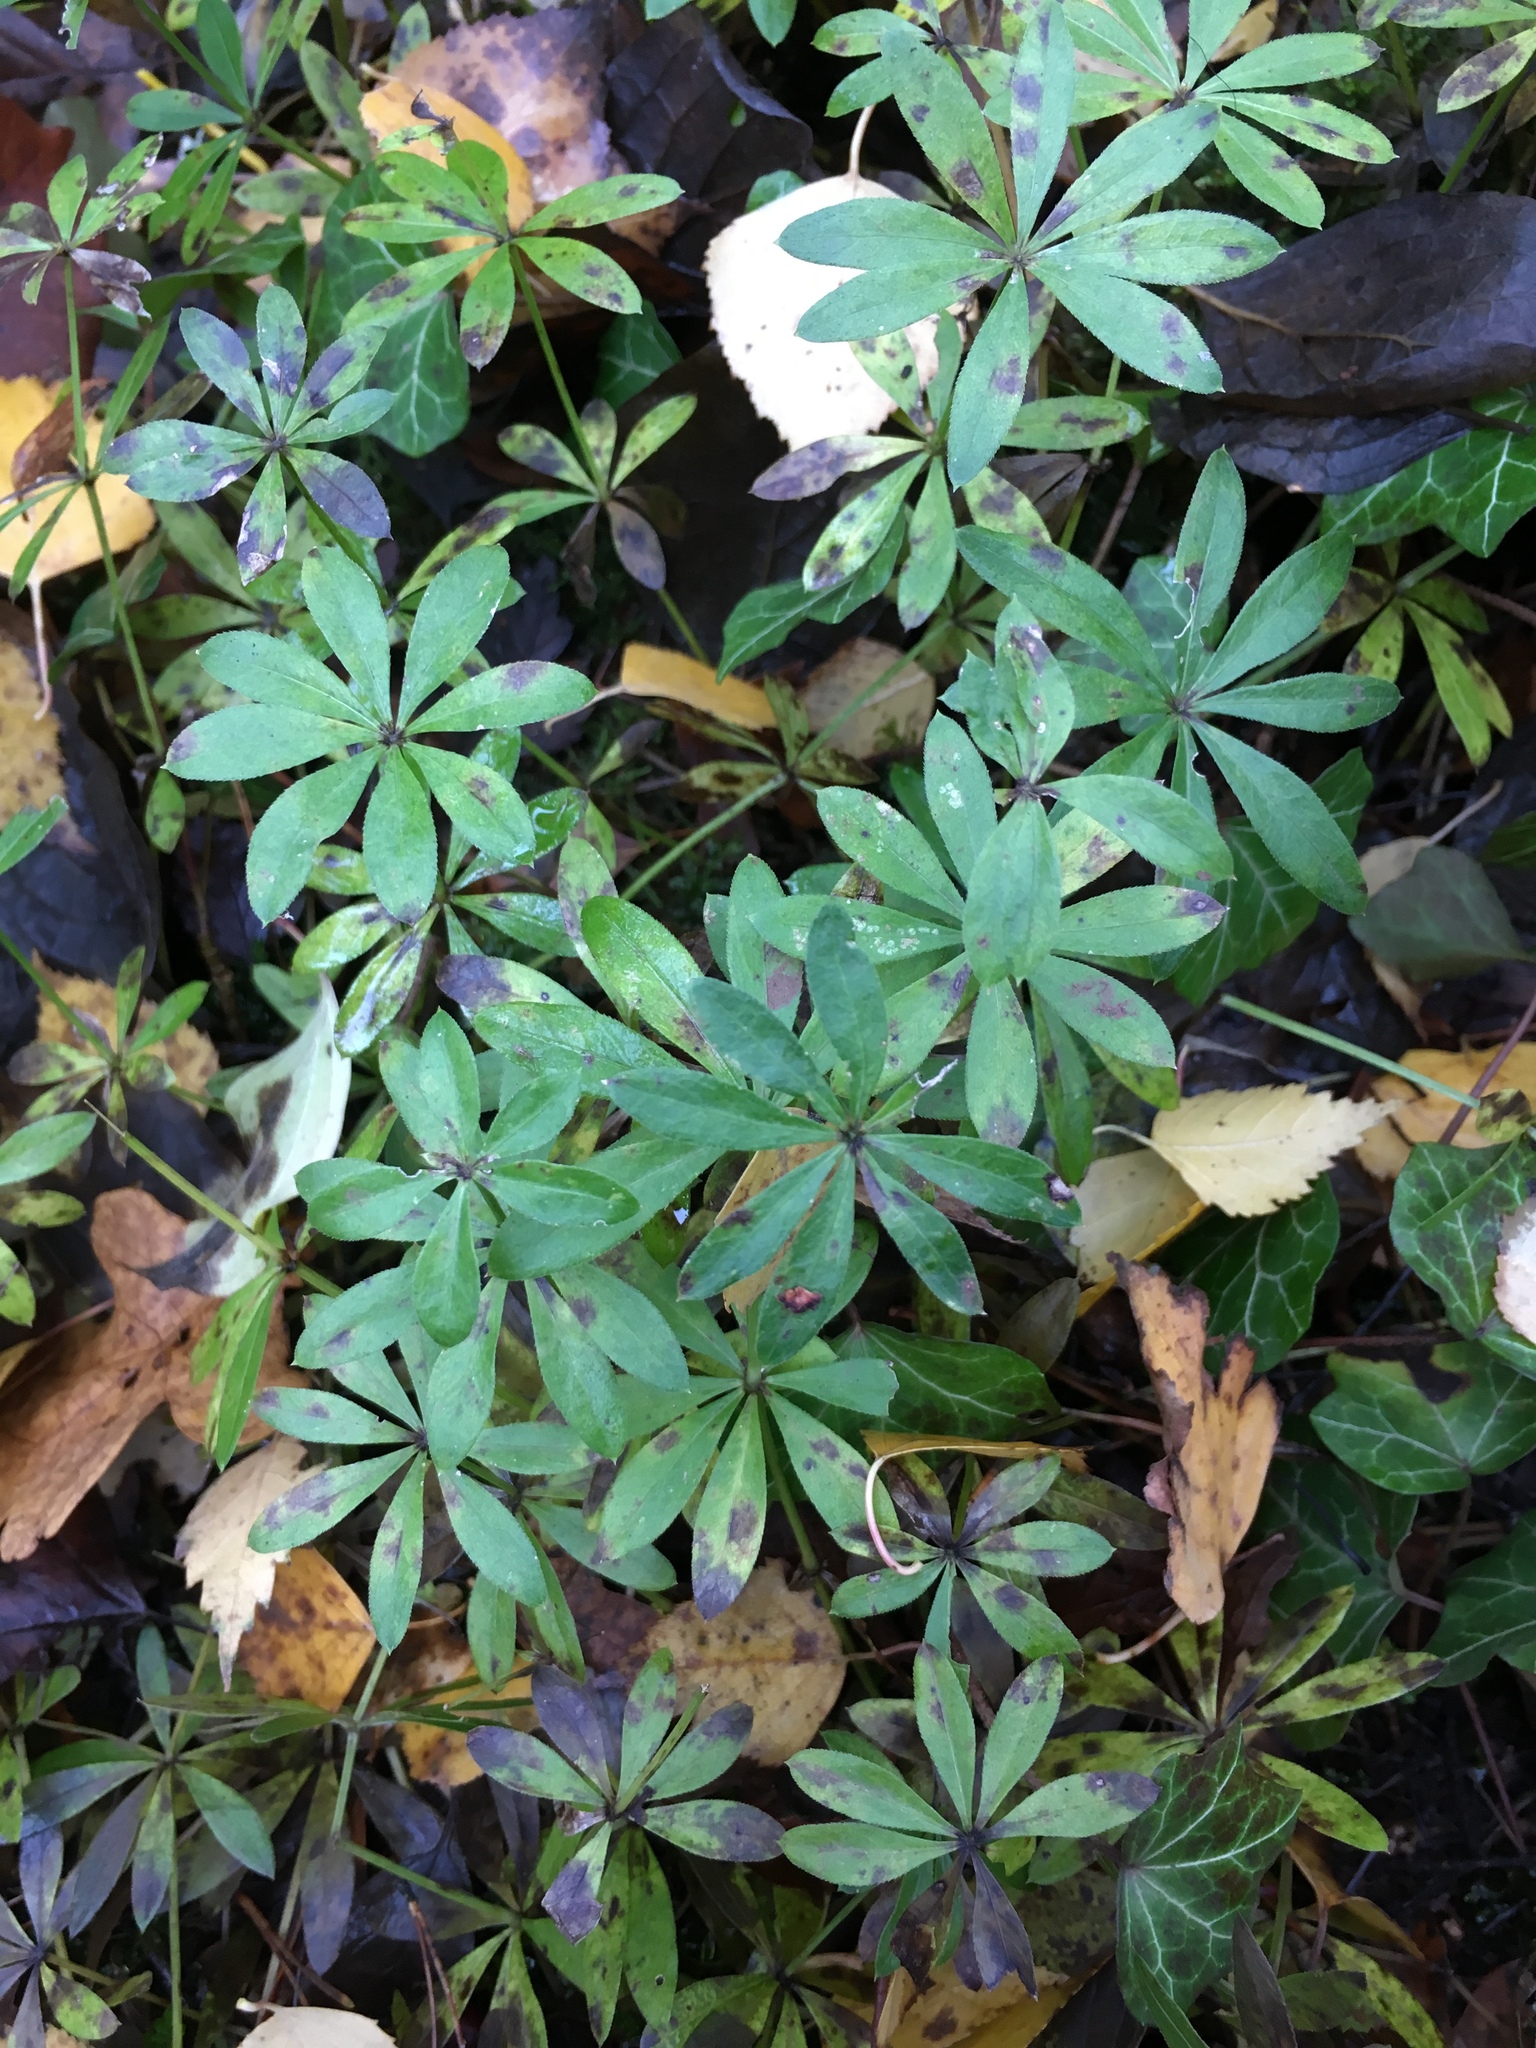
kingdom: Plantae
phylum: Tracheophyta
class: Magnoliopsida
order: Gentianales
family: Rubiaceae
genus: Galium
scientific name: Galium odoratum
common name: Sweet woodruff
